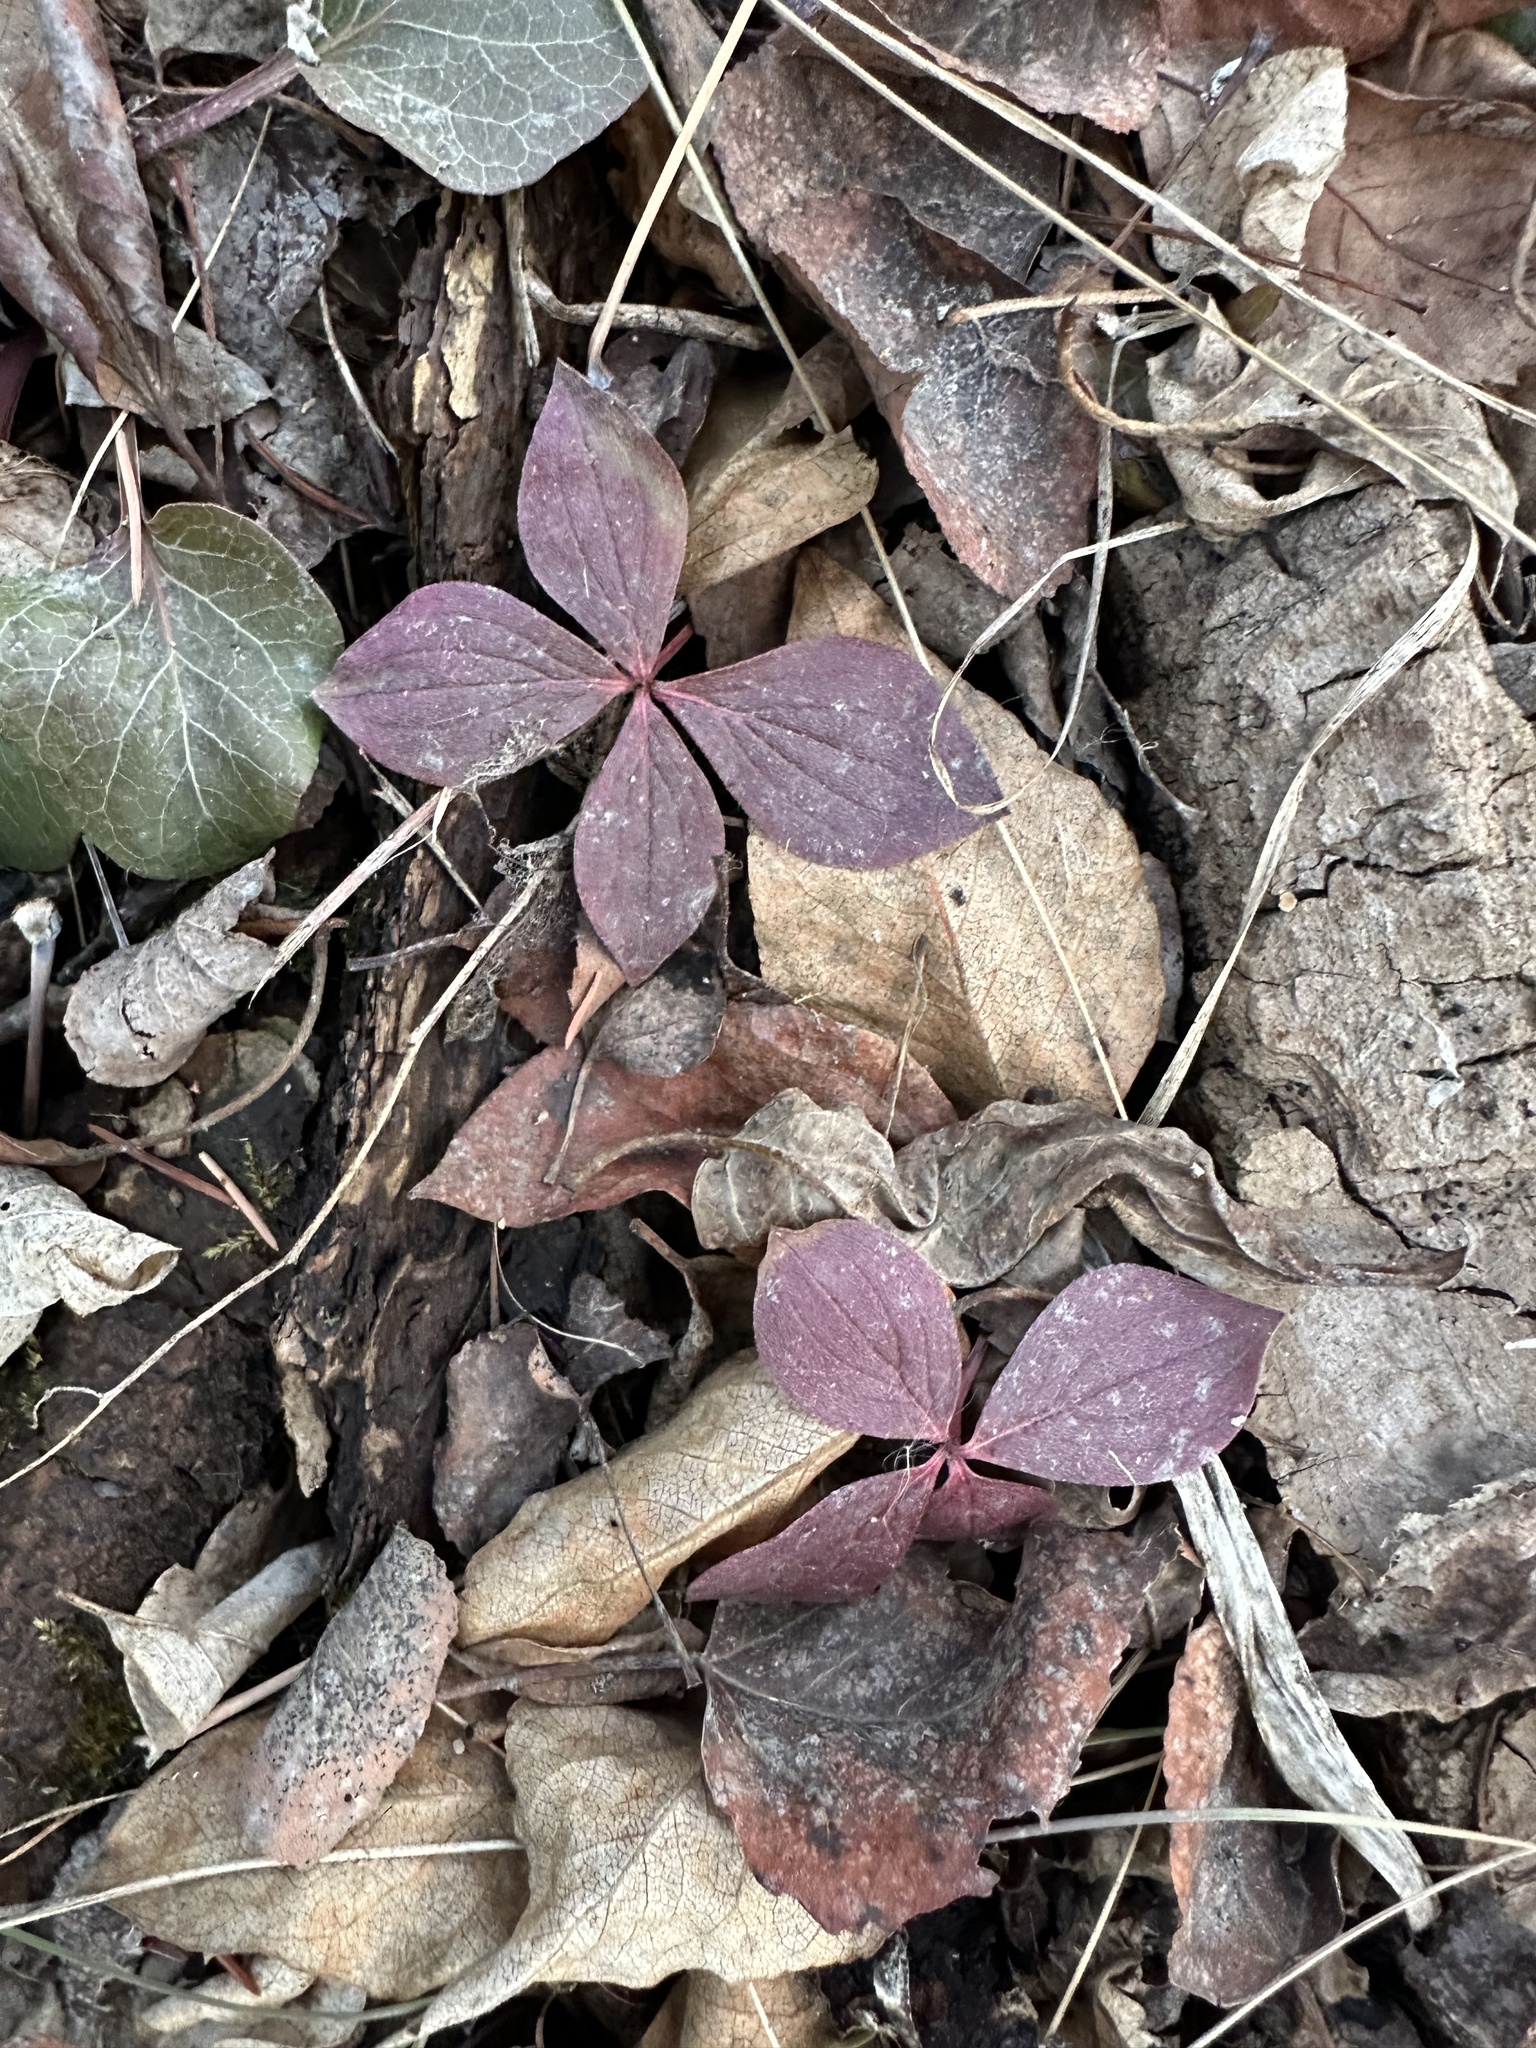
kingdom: Plantae
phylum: Tracheophyta
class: Magnoliopsida
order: Cornales
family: Cornaceae
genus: Cornus
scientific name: Cornus canadensis
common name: Creeping dogwood
